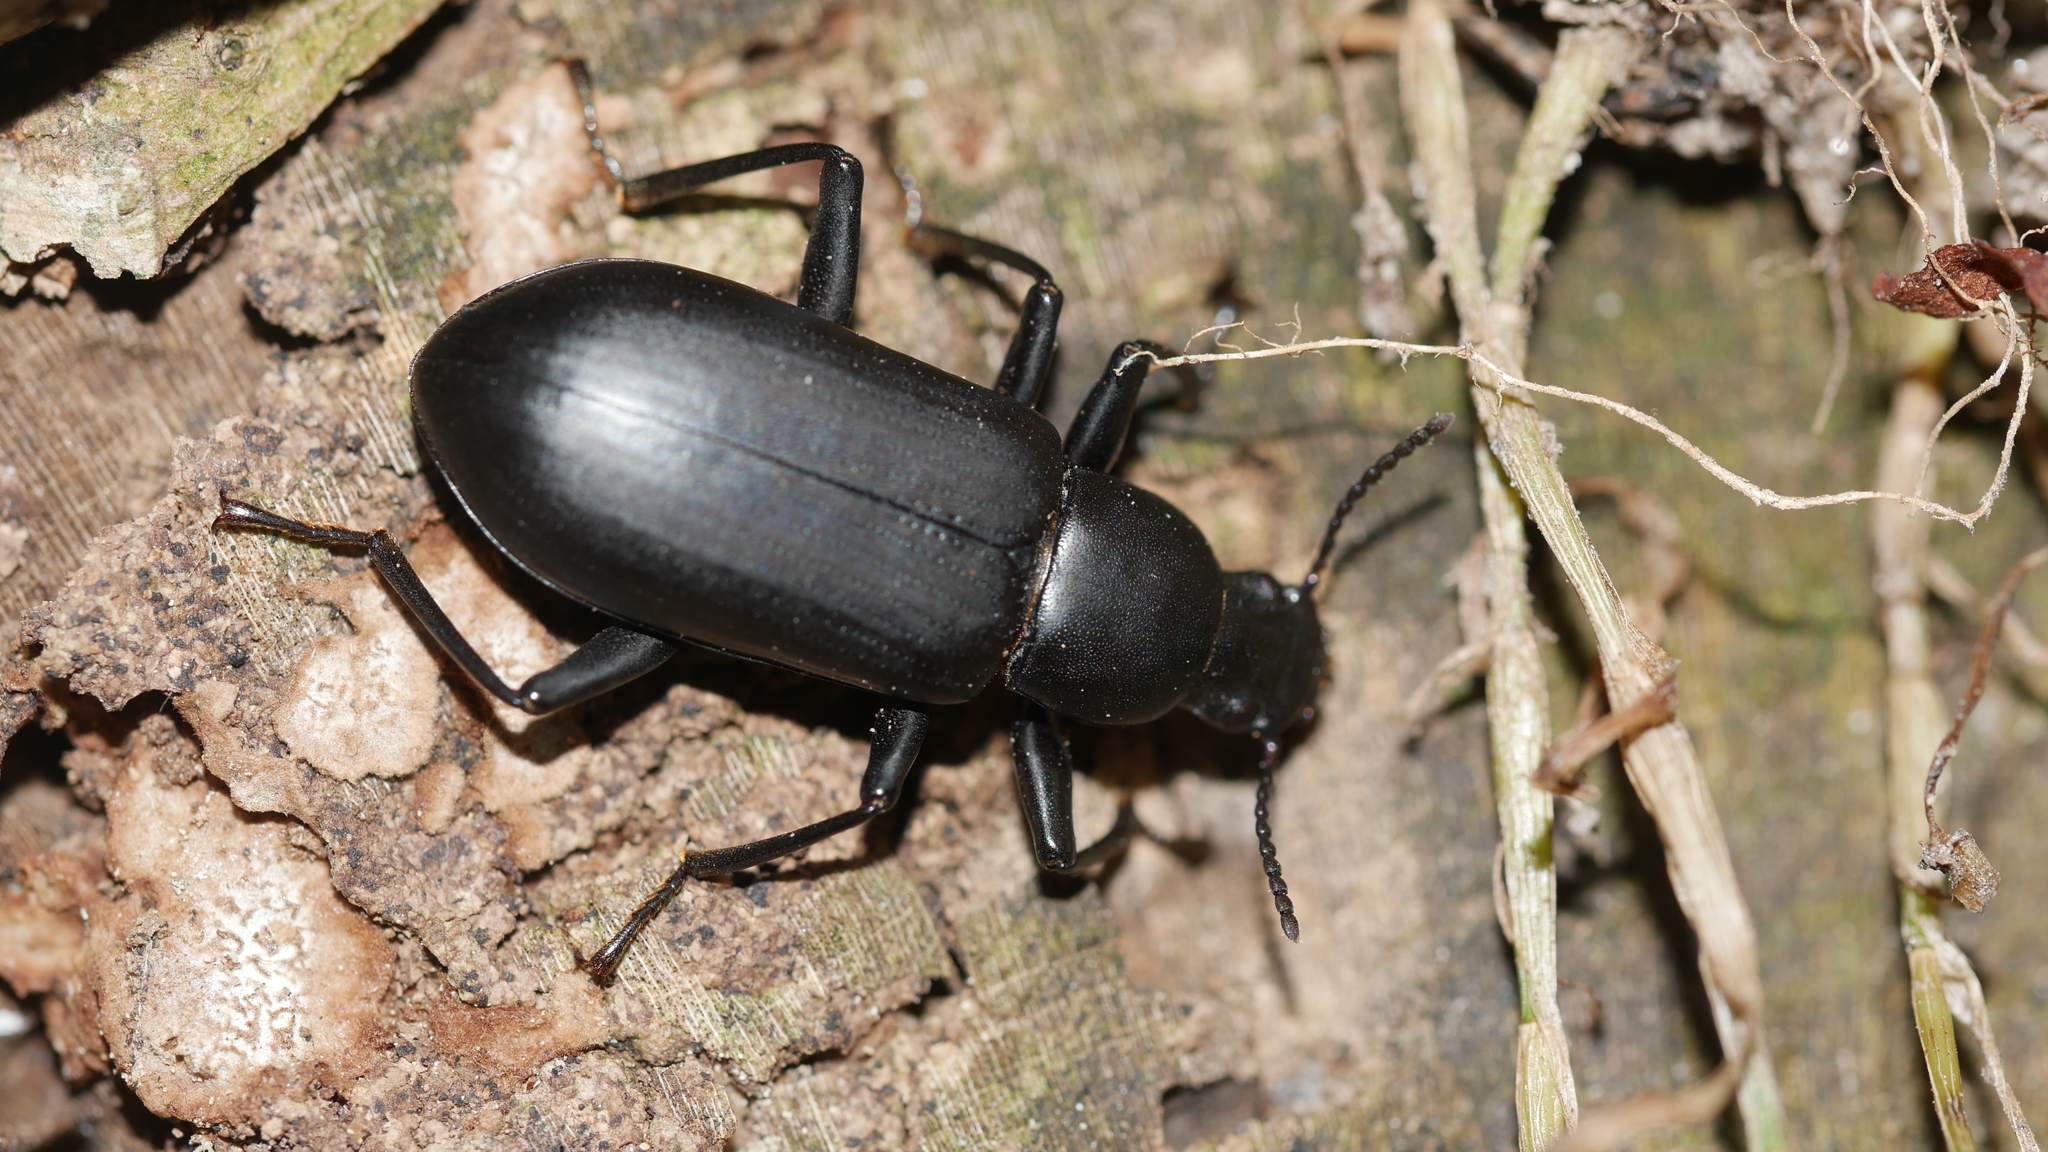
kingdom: Animalia
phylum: Arthropoda
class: Insecta
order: Coleoptera
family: Tenebrionidae
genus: Alobates
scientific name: Alobates
